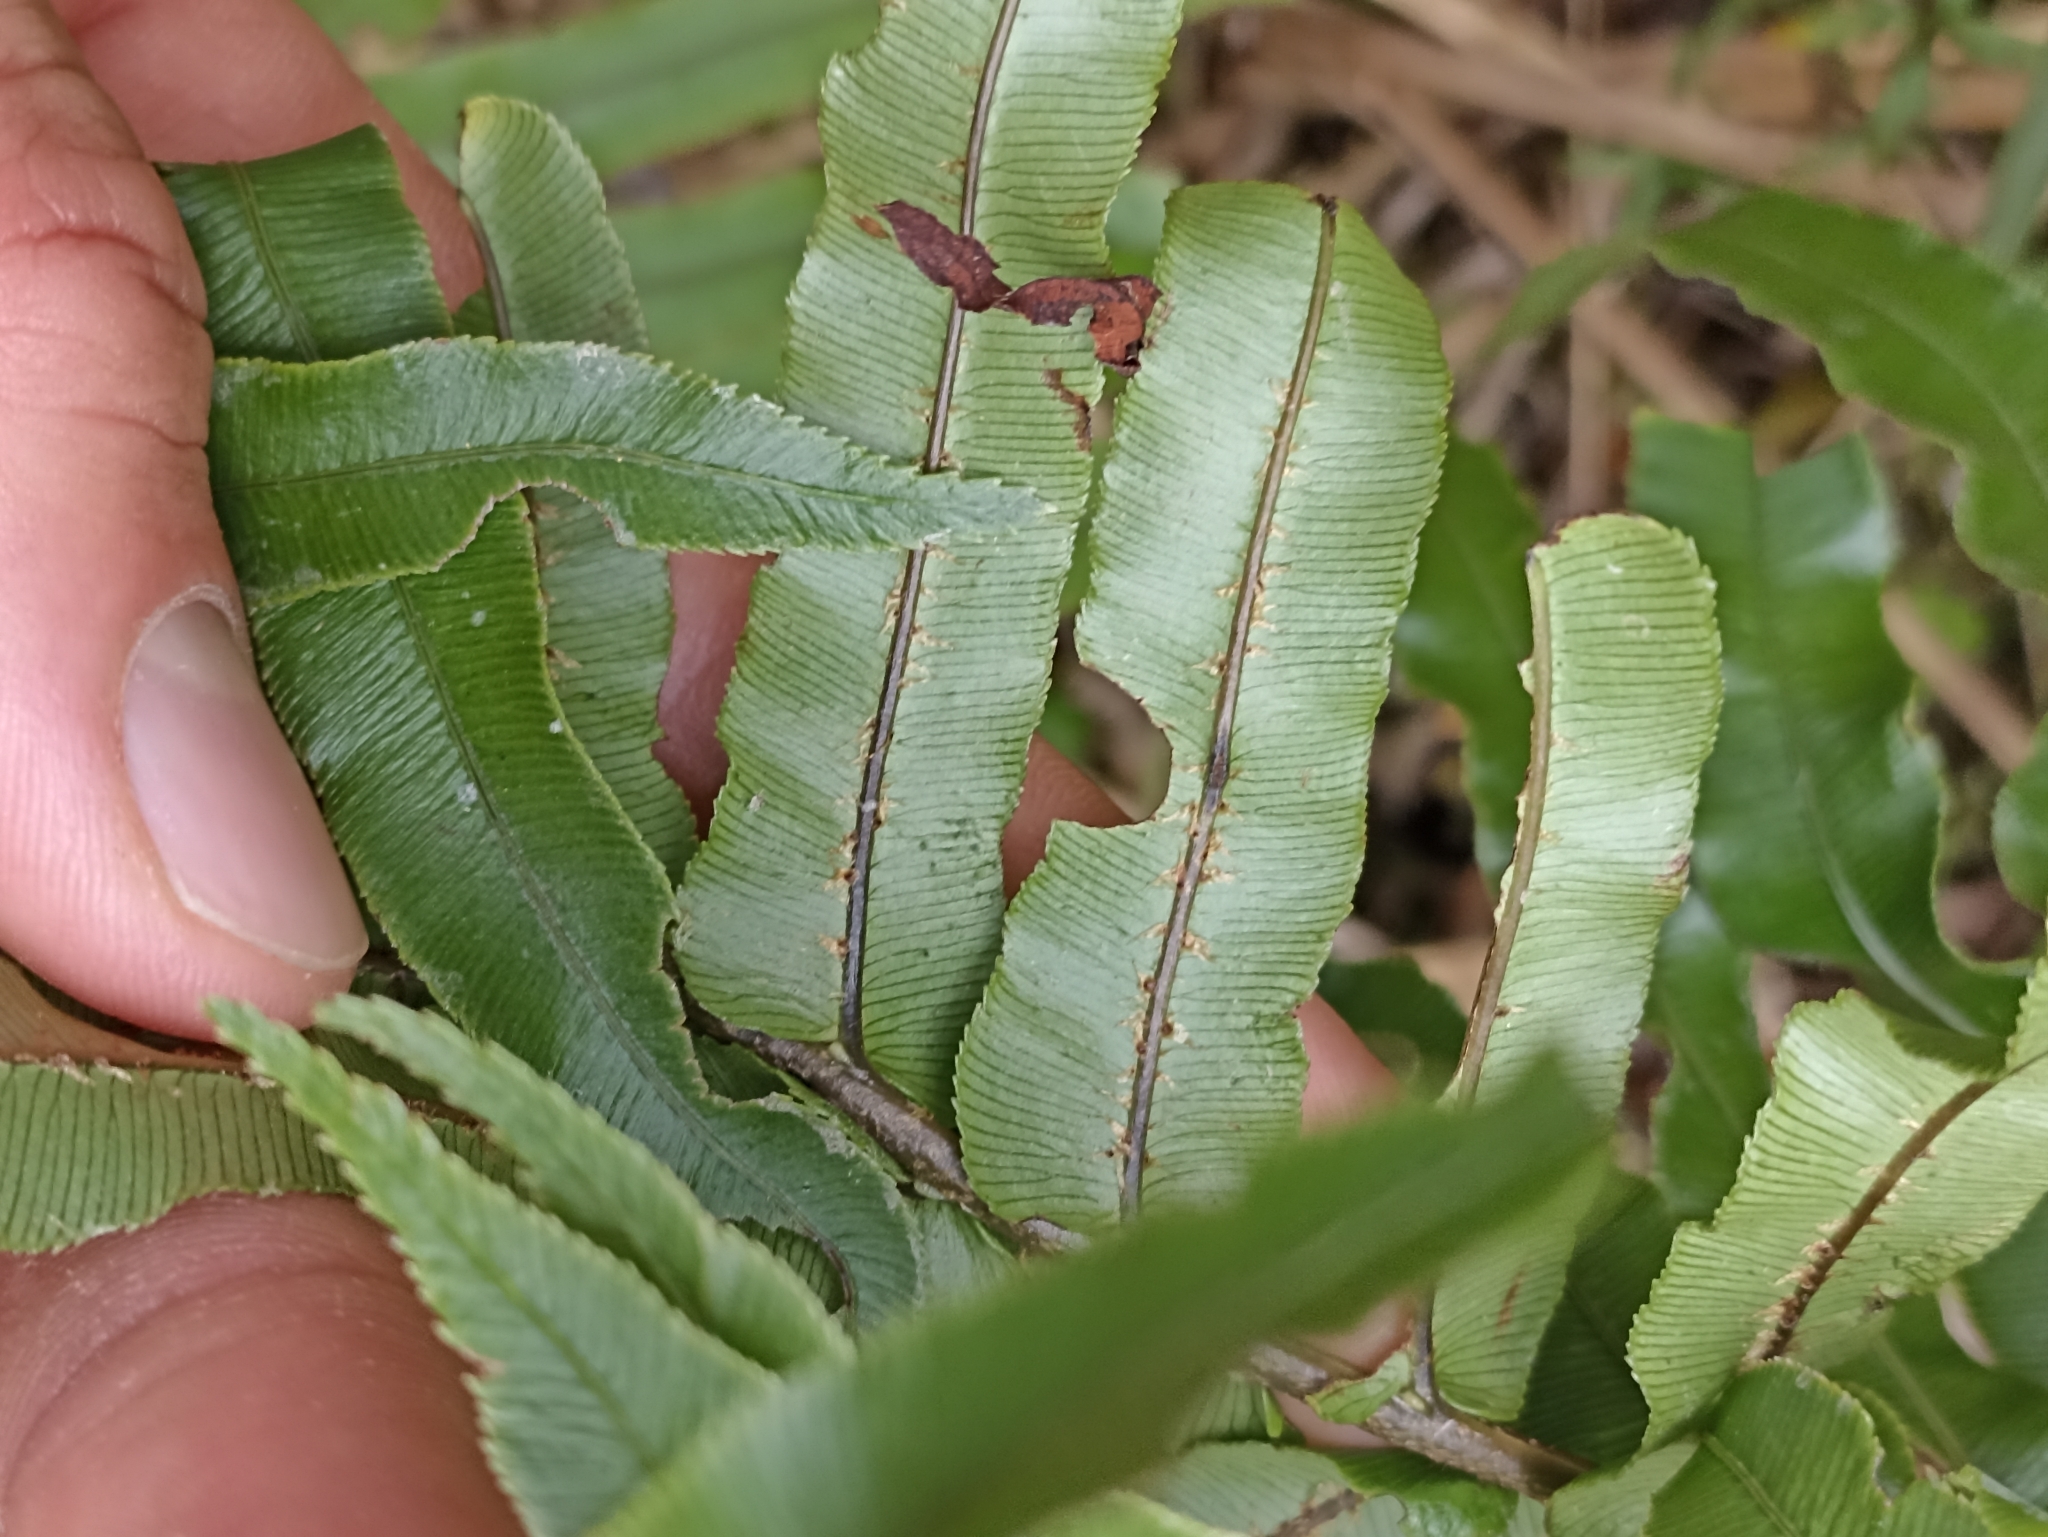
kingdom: Plantae
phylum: Tracheophyta
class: Polypodiopsida
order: Polypodiales
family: Blechnaceae
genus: Parablechnum
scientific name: Parablechnum novae-zelandiae
